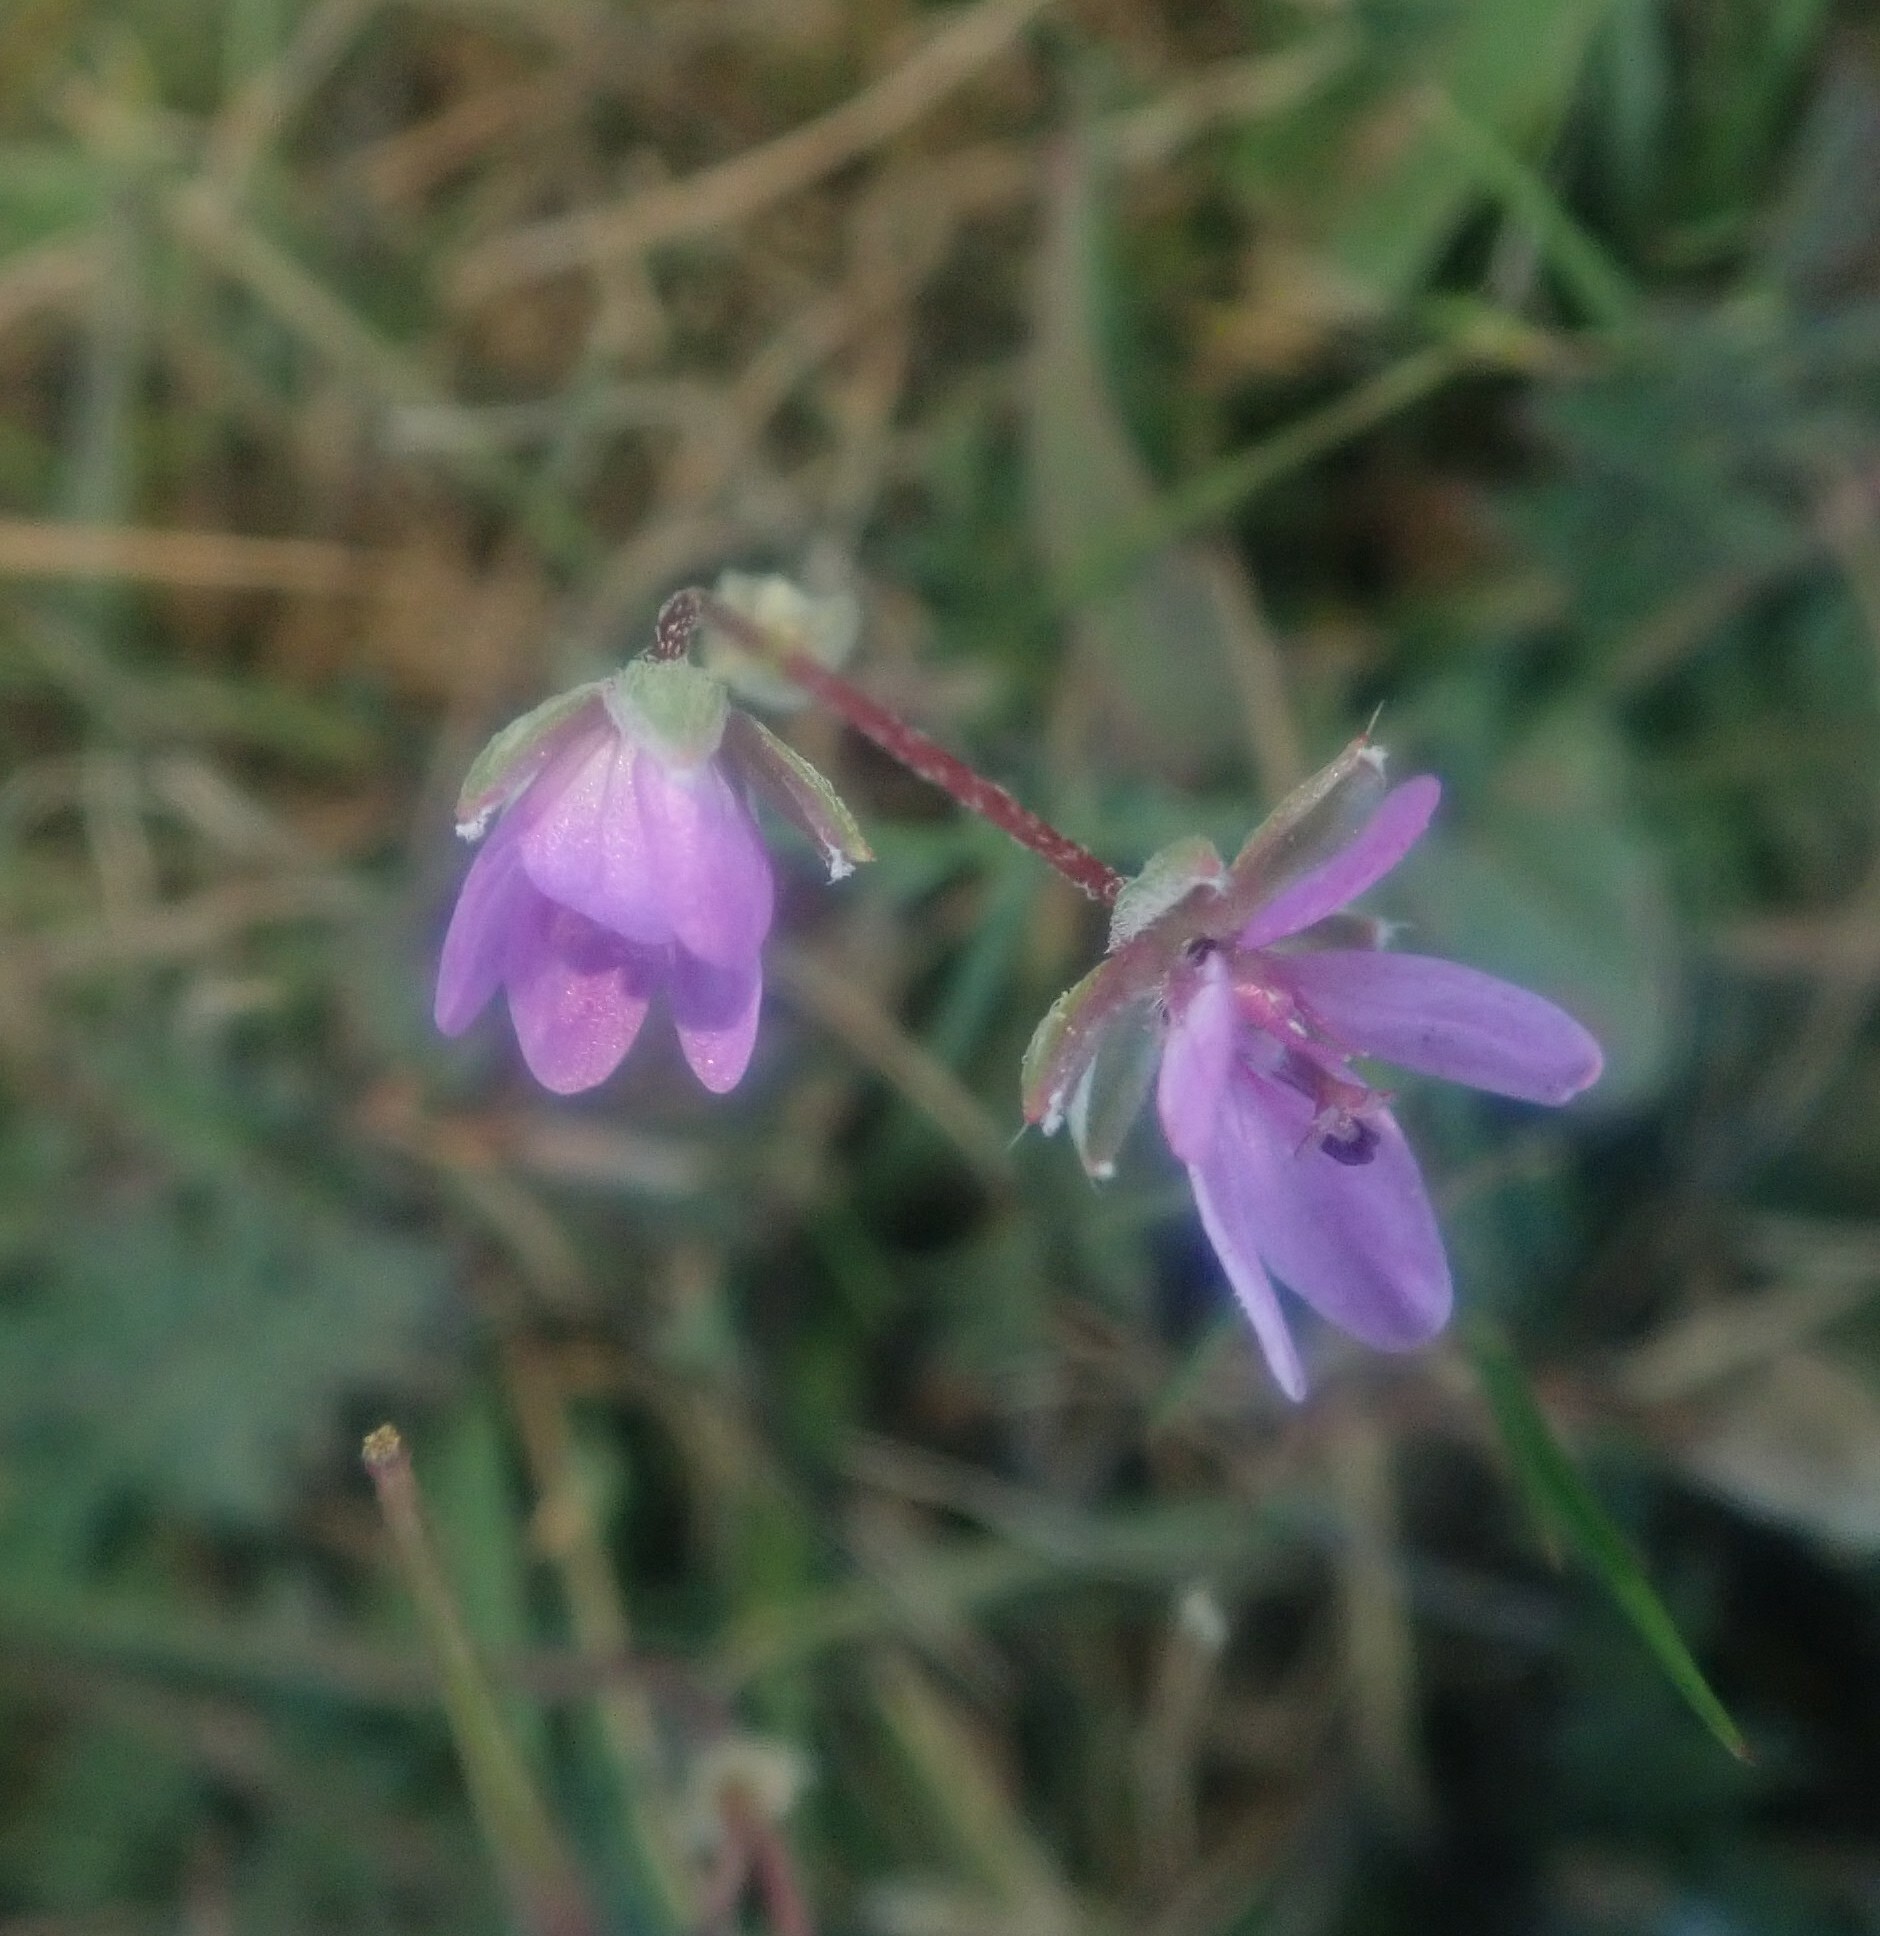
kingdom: Plantae
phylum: Tracheophyta
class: Magnoliopsida
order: Geraniales
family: Geraniaceae
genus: Erodium
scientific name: Erodium cicutarium
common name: Common stork's-bill
